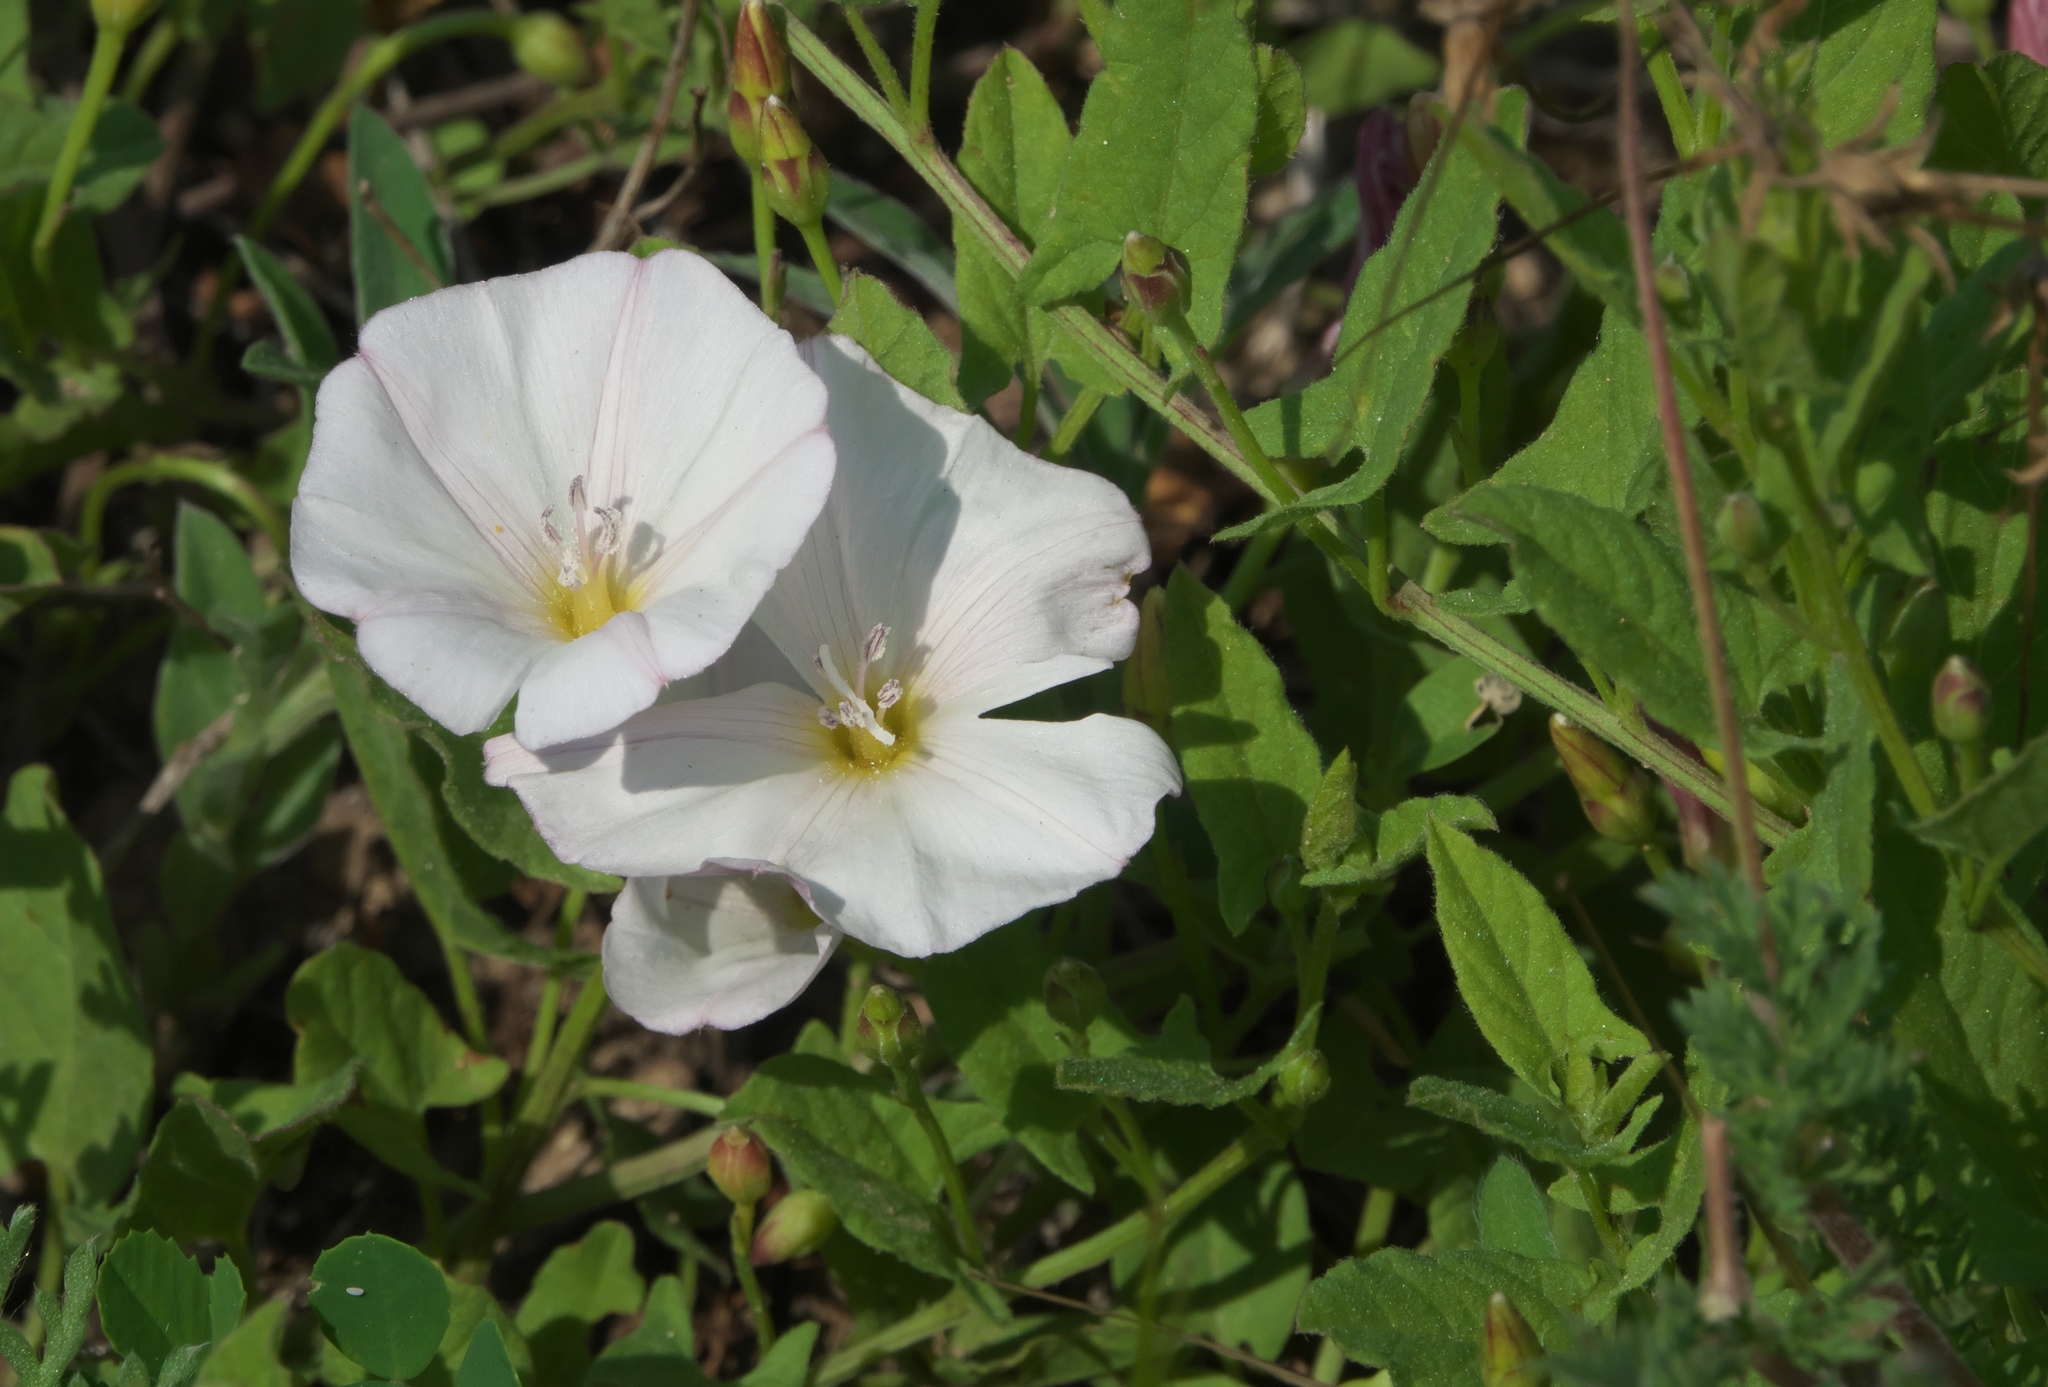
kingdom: Plantae
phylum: Tracheophyta
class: Magnoliopsida
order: Solanales
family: Convolvulaceae
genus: Convolvulus
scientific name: Convolvulus arvensis
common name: Field bindweed
